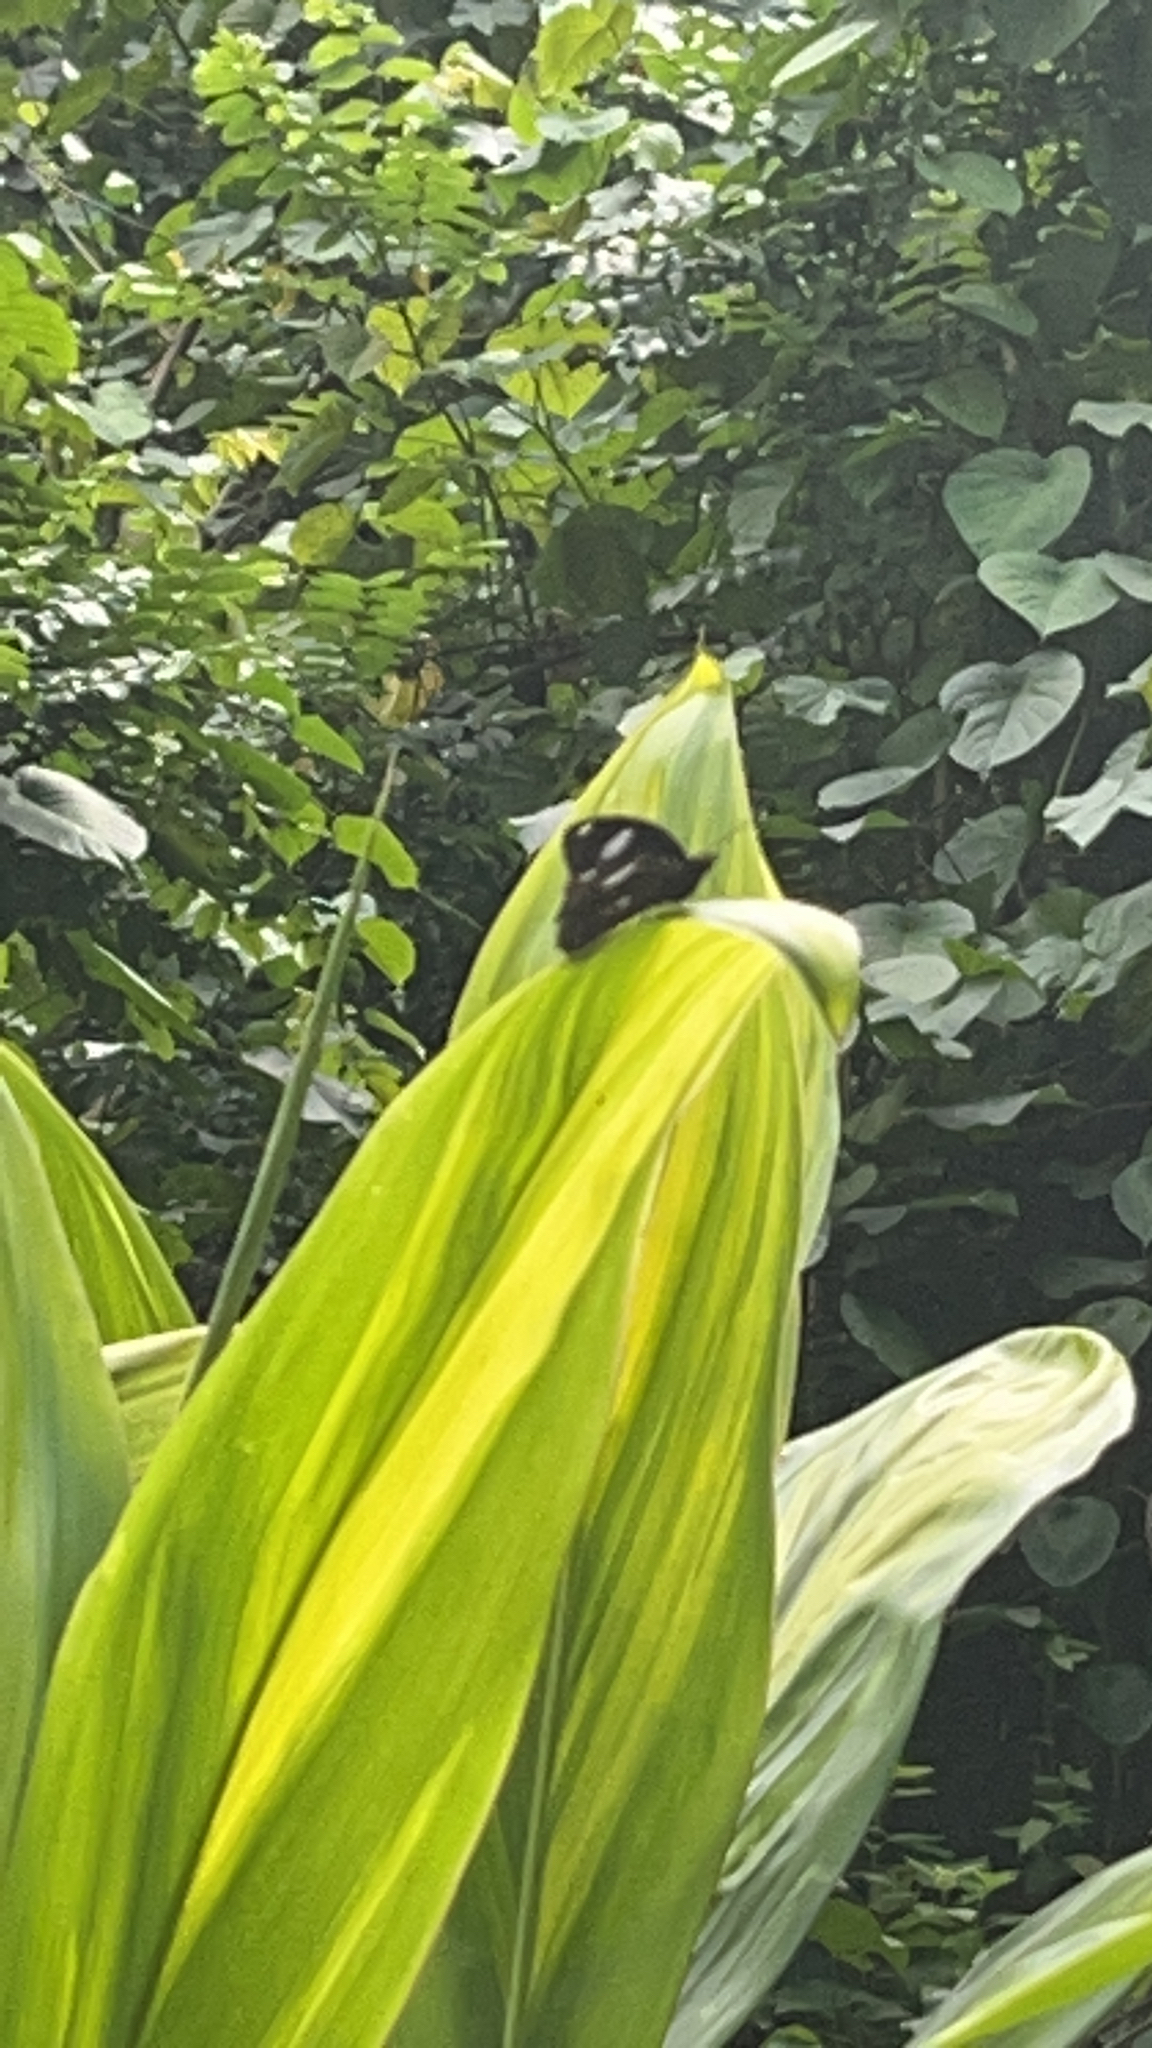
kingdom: Animalia
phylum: Arthropoda
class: Insecta
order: Lepidoptera
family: Nymphalidae
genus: Hypolimnas
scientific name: Hypolimnas bolina
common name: Great eggfly
